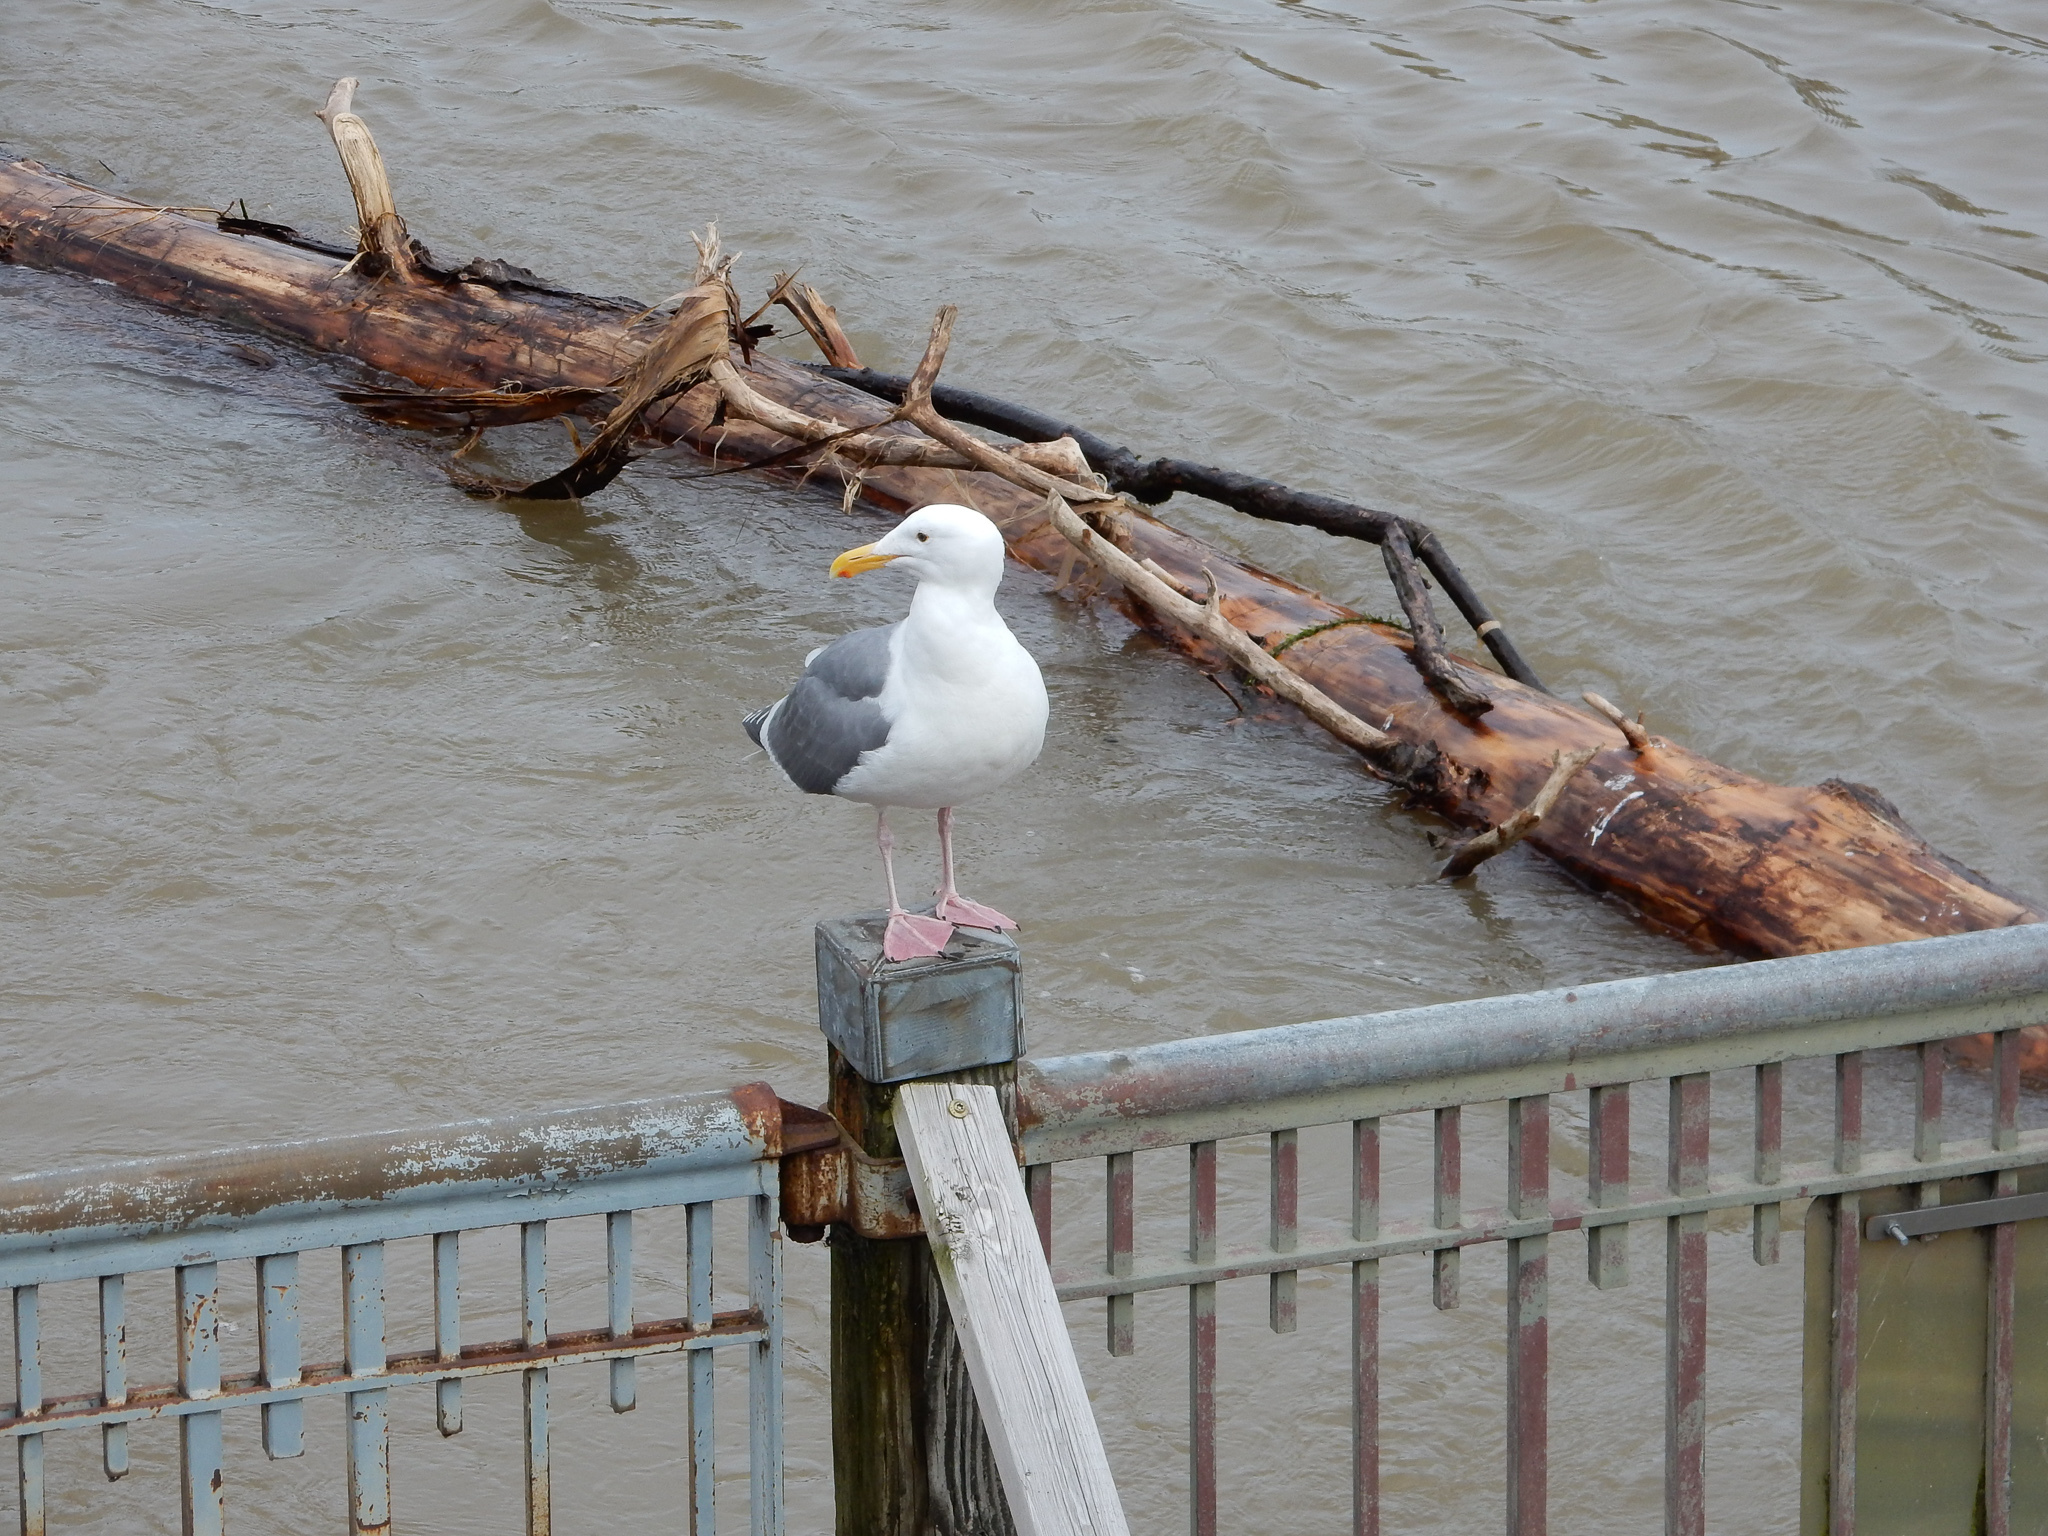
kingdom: Animalia
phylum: Chordata
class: Aves
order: Charadriiformes
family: Laridae
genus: Larus
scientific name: Larus occidentalis
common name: Western gull
